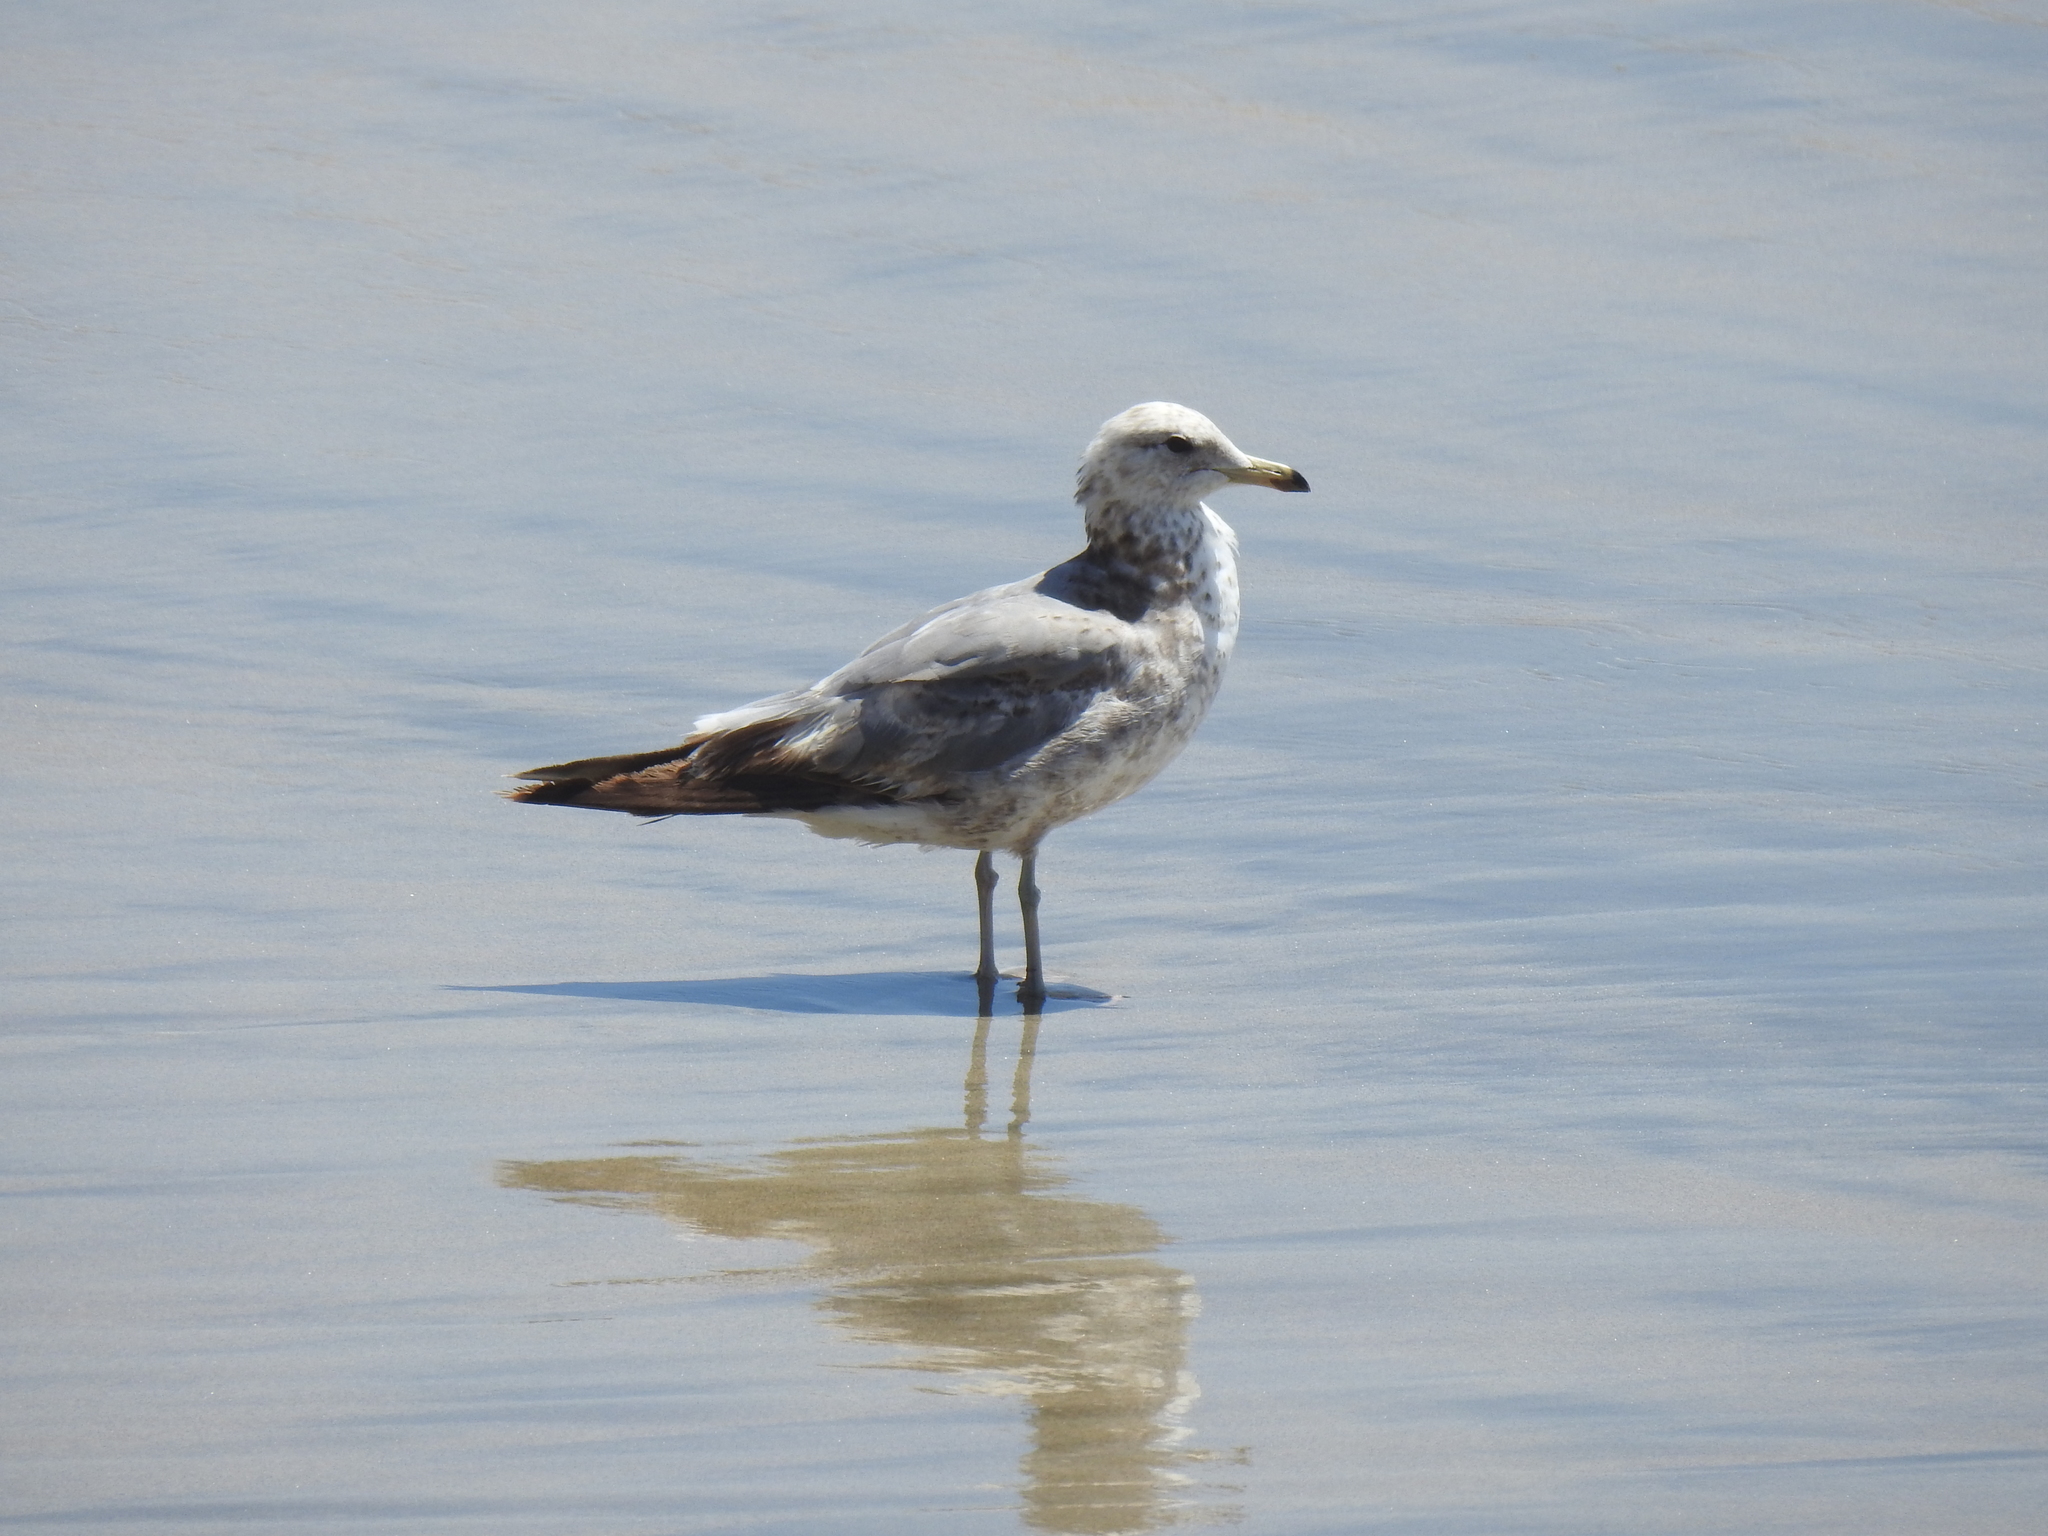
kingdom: Animalia
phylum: Chordata
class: Aves
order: Charadriiformes
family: Laridae
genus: Larus
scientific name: Larus californicus
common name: California gull
